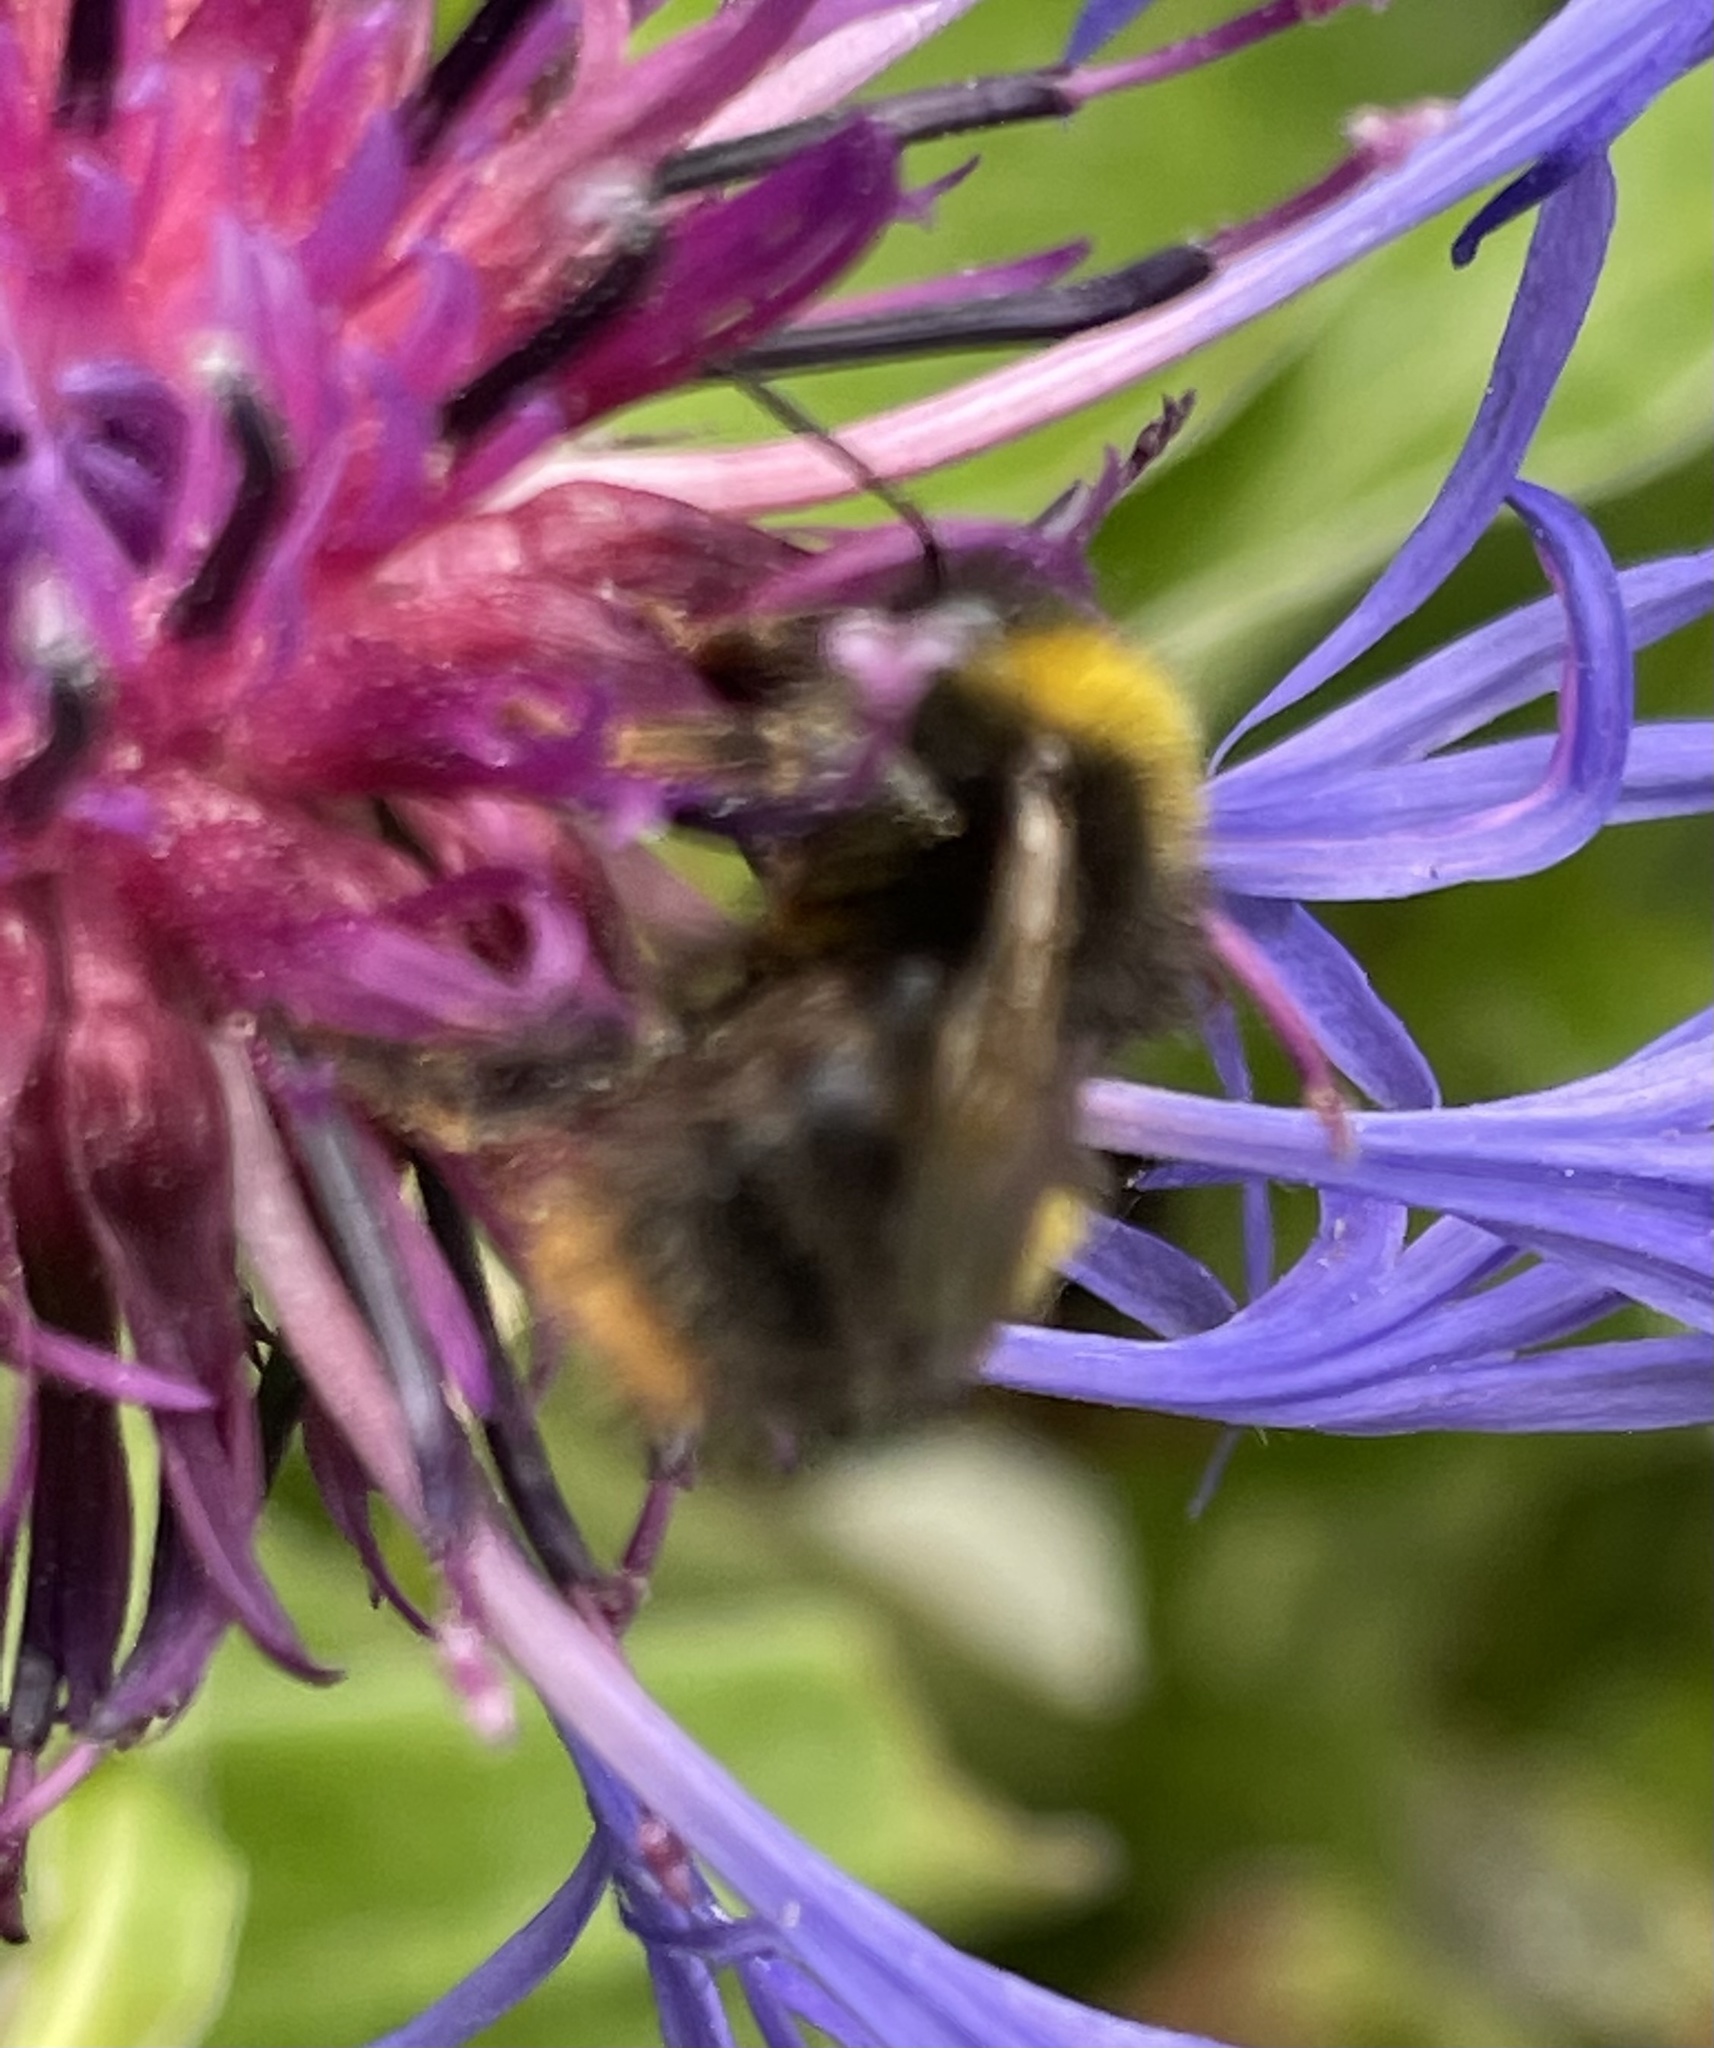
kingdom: Animalia
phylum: Arthropoda
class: Insecta
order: Hymenoptera
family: Apidae
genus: Bombus
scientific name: Bombus pratorum
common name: Early humble-bee
